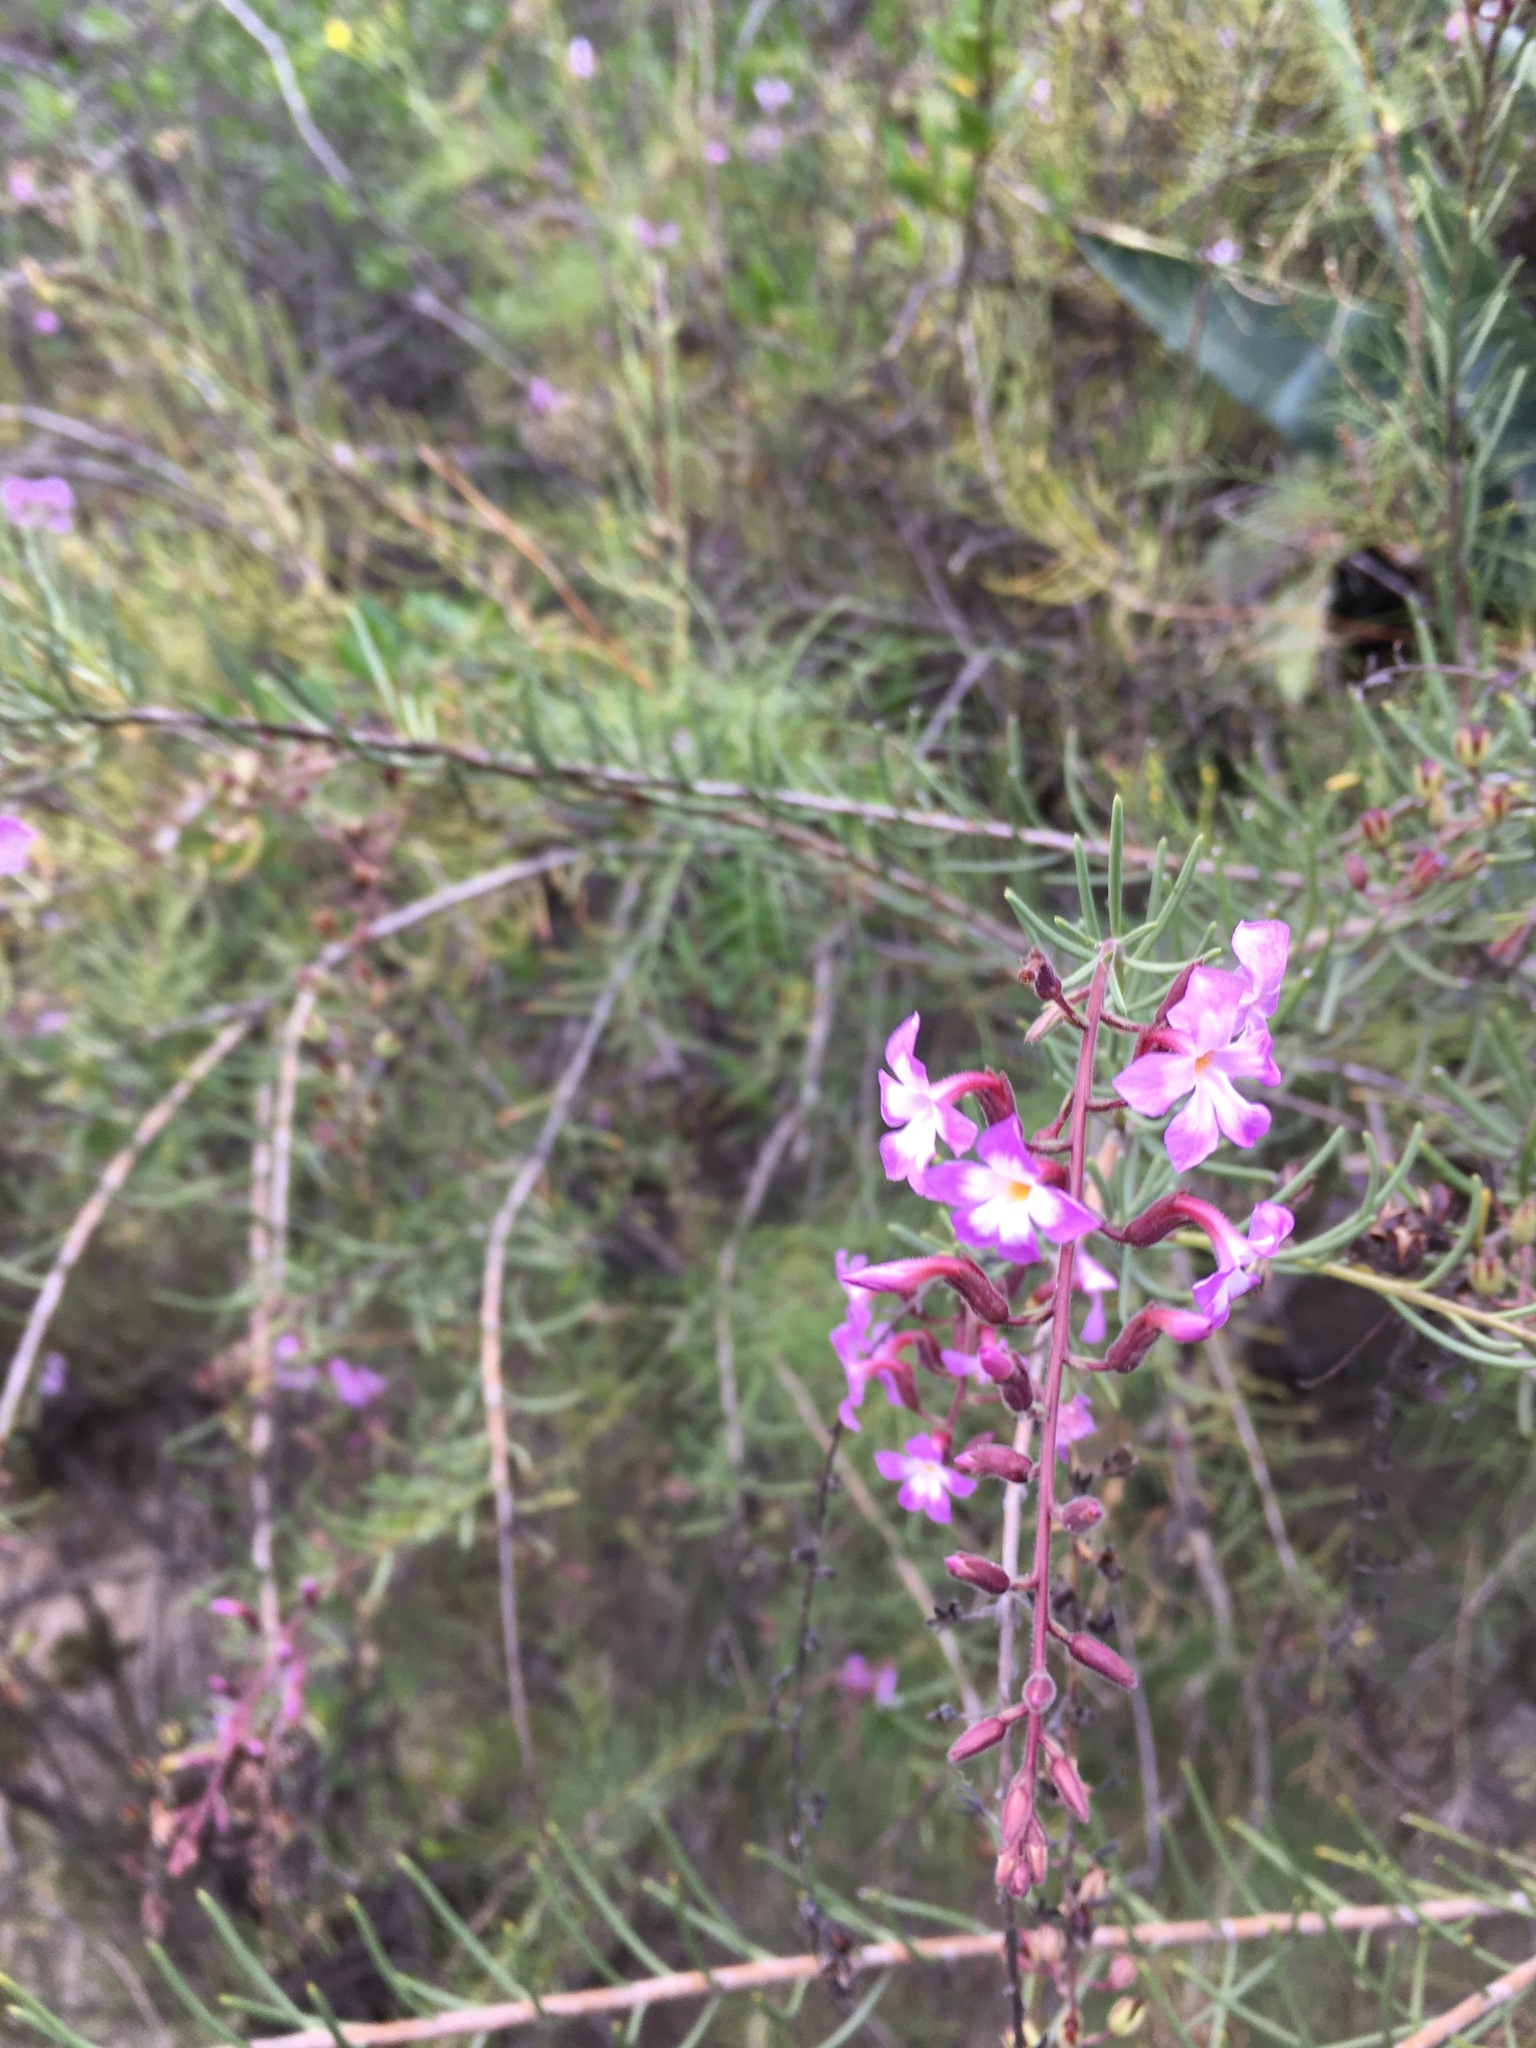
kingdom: Plantae
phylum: Tracheophyta
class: Magnoliopsida
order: Lamiales
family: Plantaginaceae
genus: Campylanthus
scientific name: Campylanthus salsoloides
